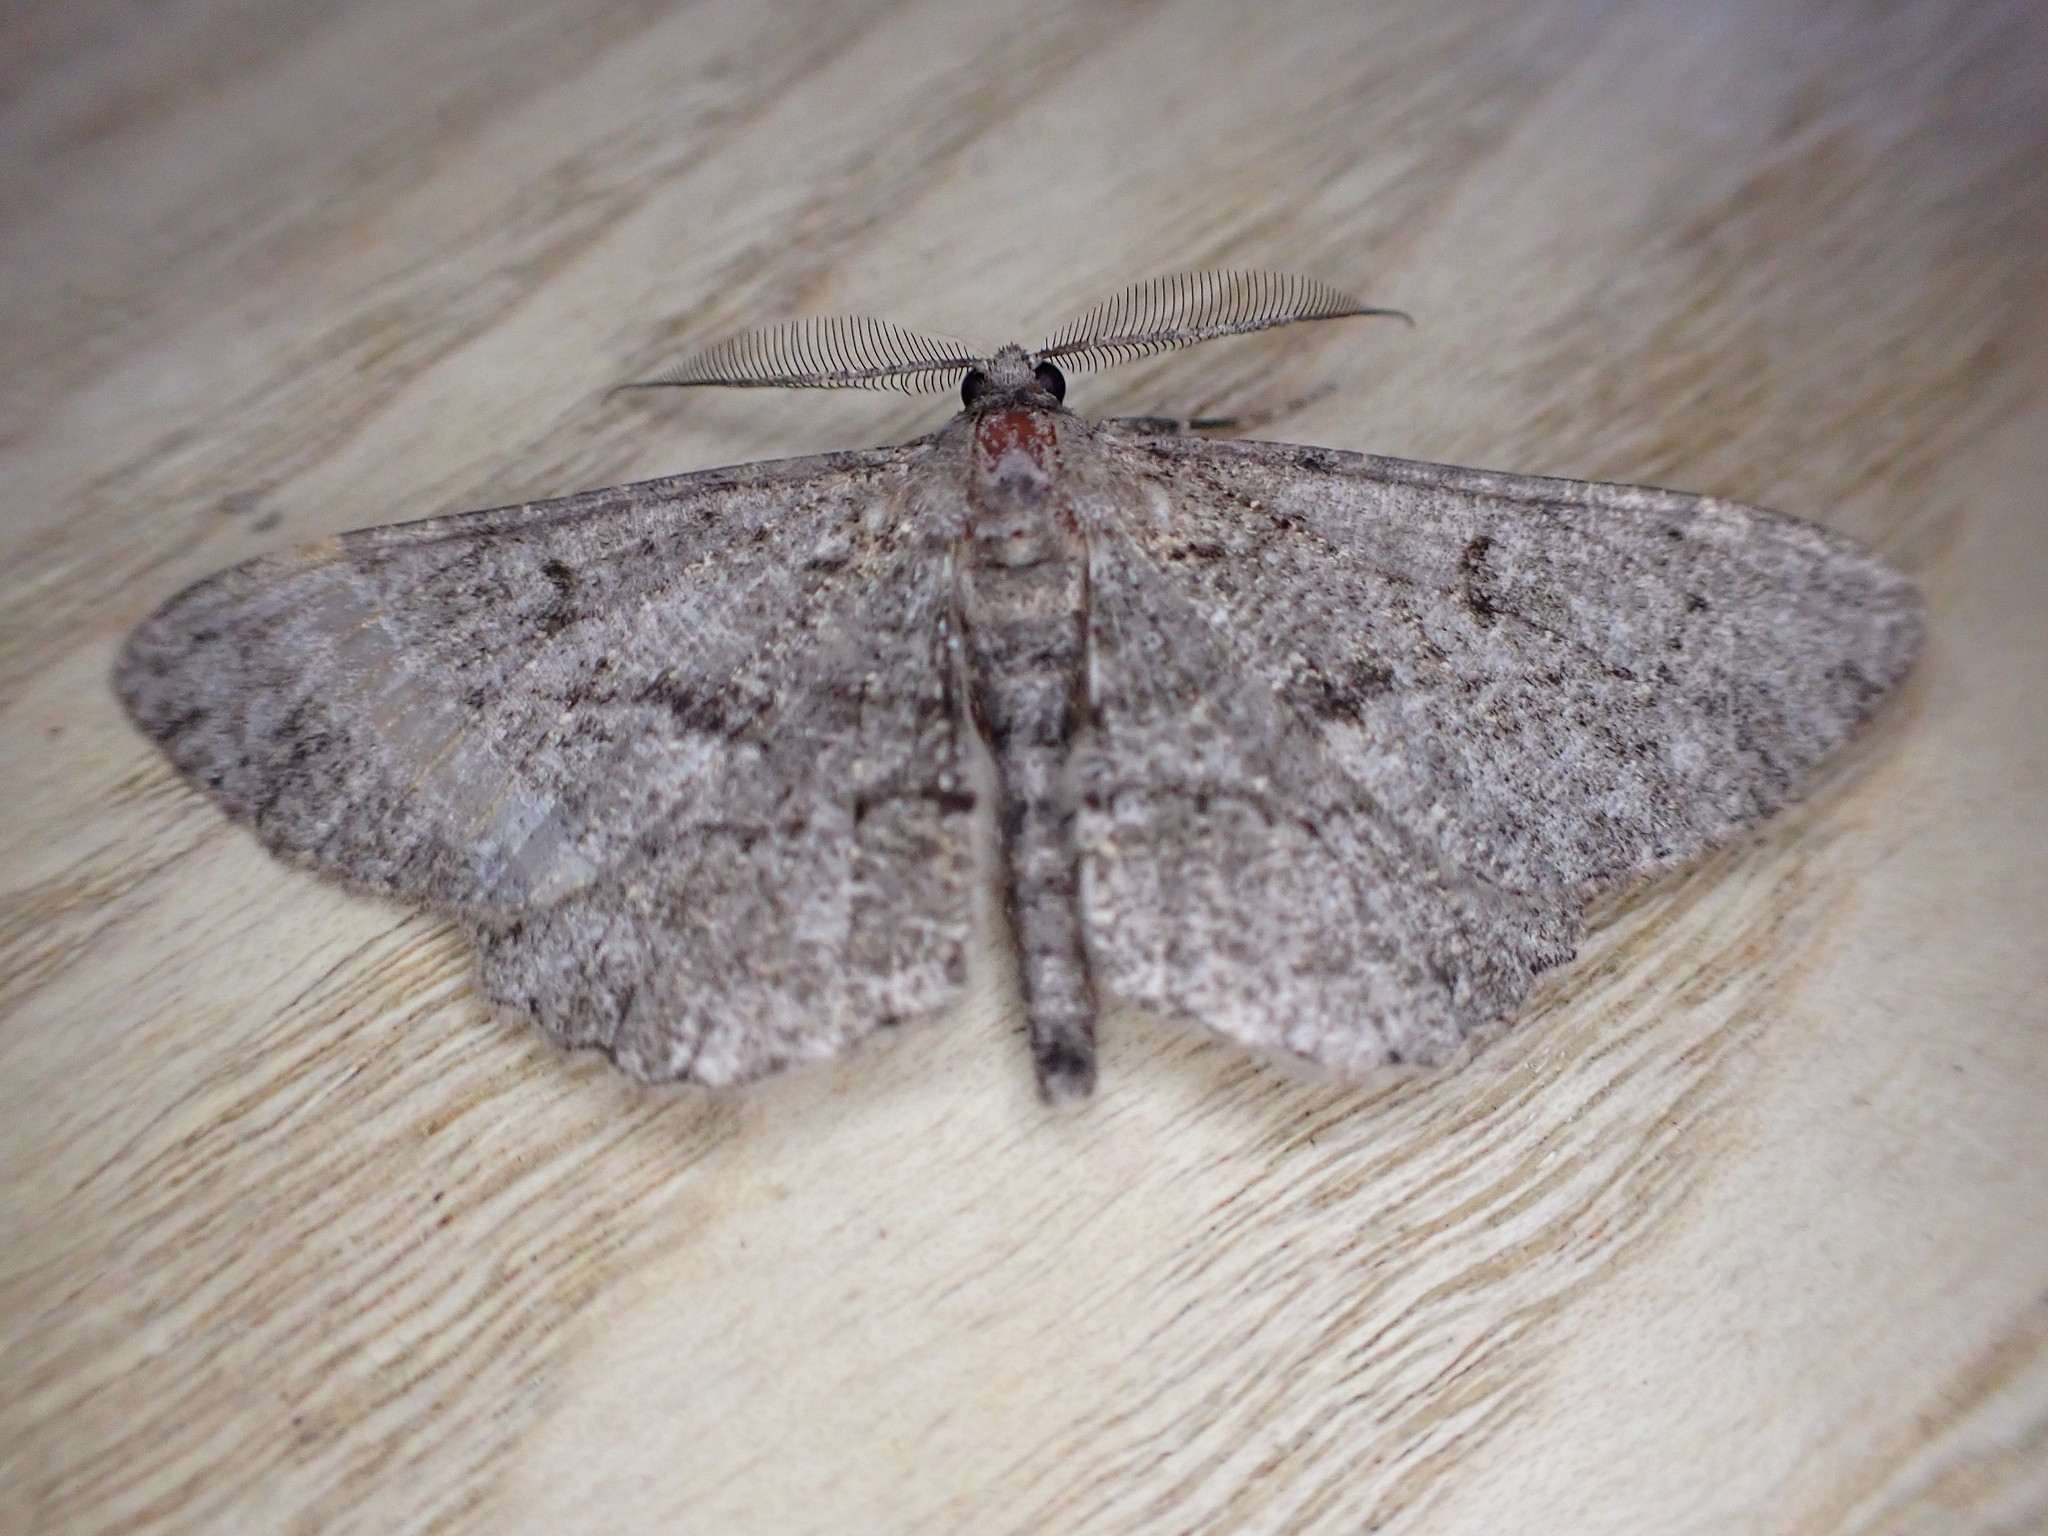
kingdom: Animalia
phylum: Arthropoda
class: Insecta
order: Lepidoptera
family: Geometridae
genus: Peribatodes
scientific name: Peribatodes rhomboidaria
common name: Willow beauty
